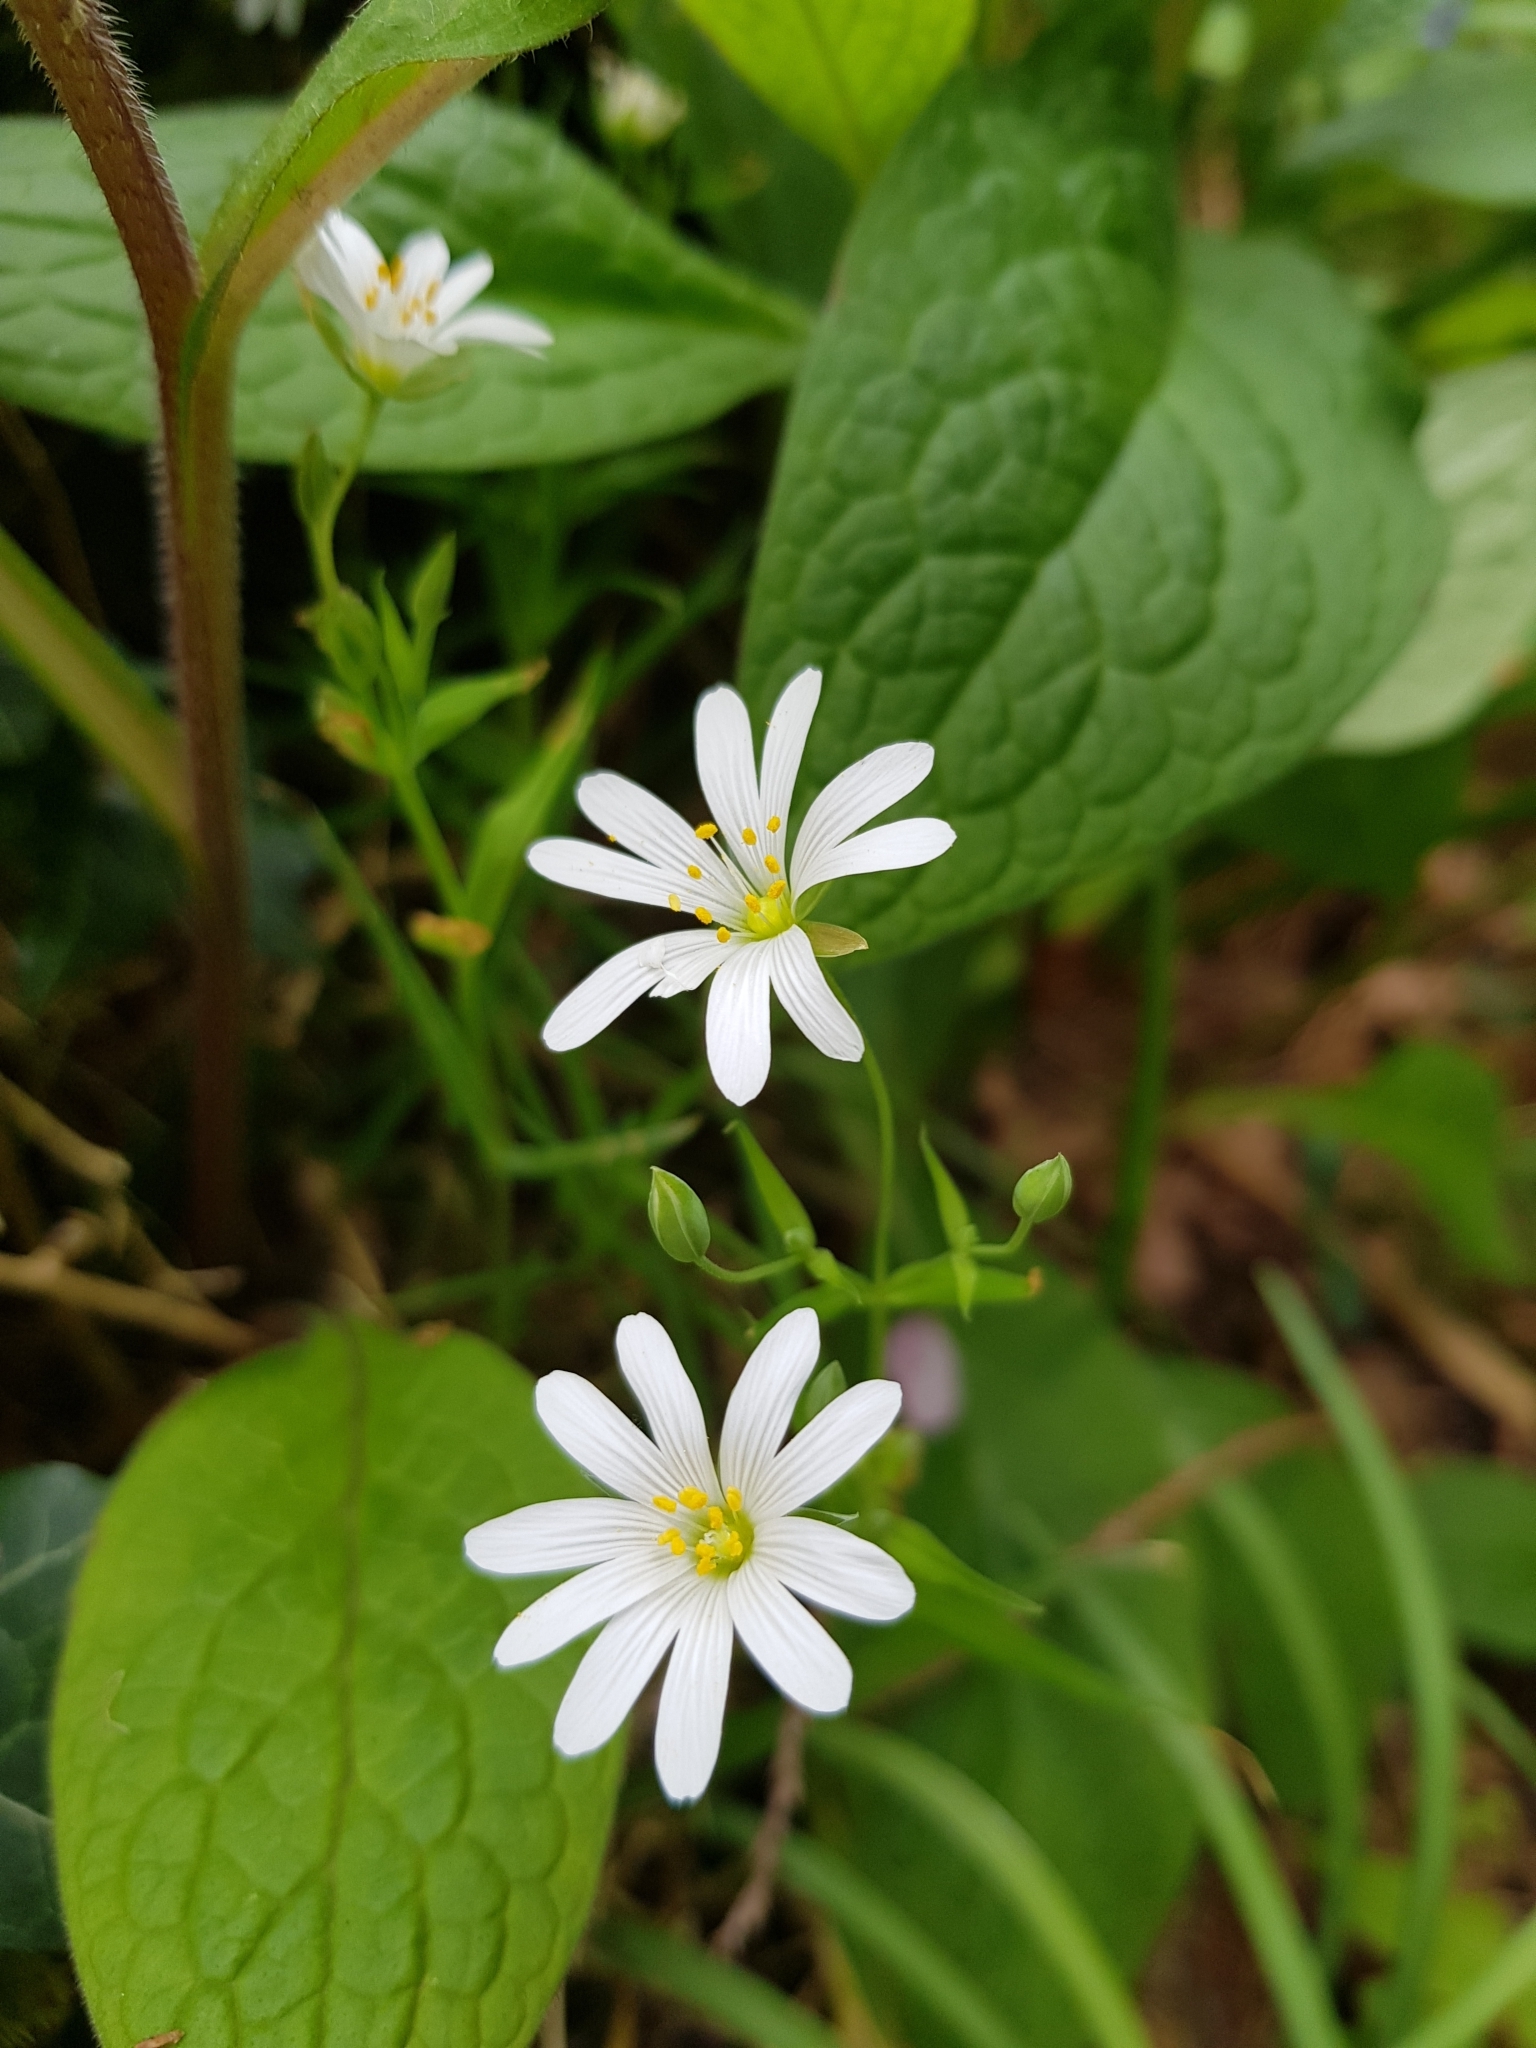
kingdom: Plantae
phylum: Tracheophyta
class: Magnoliopsida
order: Caryophyllales
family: Caryophyllaceae
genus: Rabelera
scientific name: Rabelera holostea
